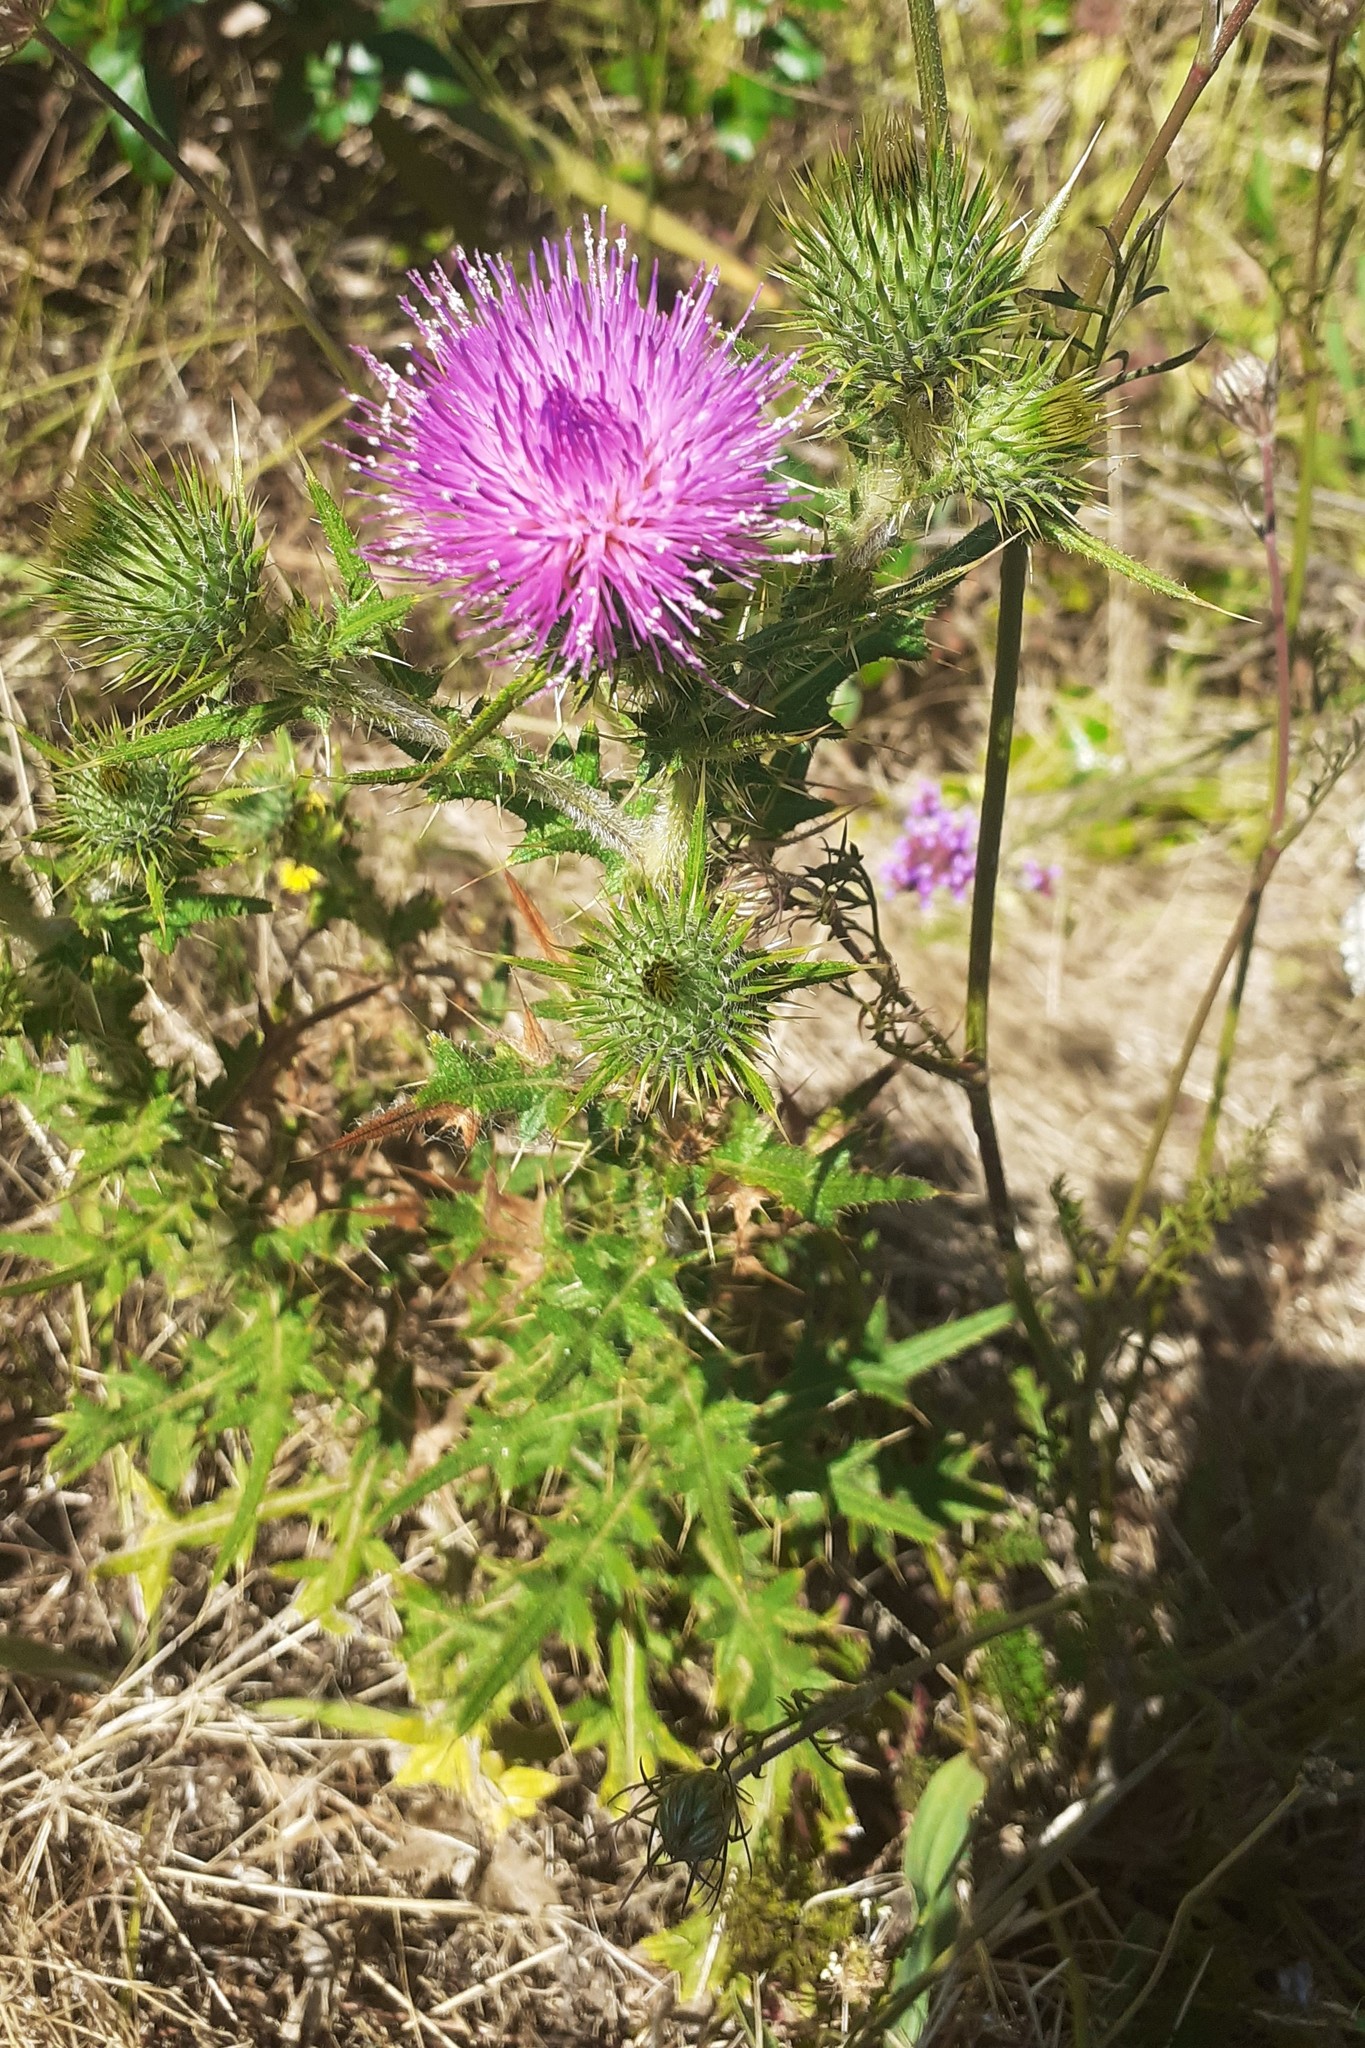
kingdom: Plantae
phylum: Tracheophyta
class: Magnoliopsida
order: Asterales
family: Asteraceae
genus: Cirsium
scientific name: Cirsium vulgare
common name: Bull thistle
